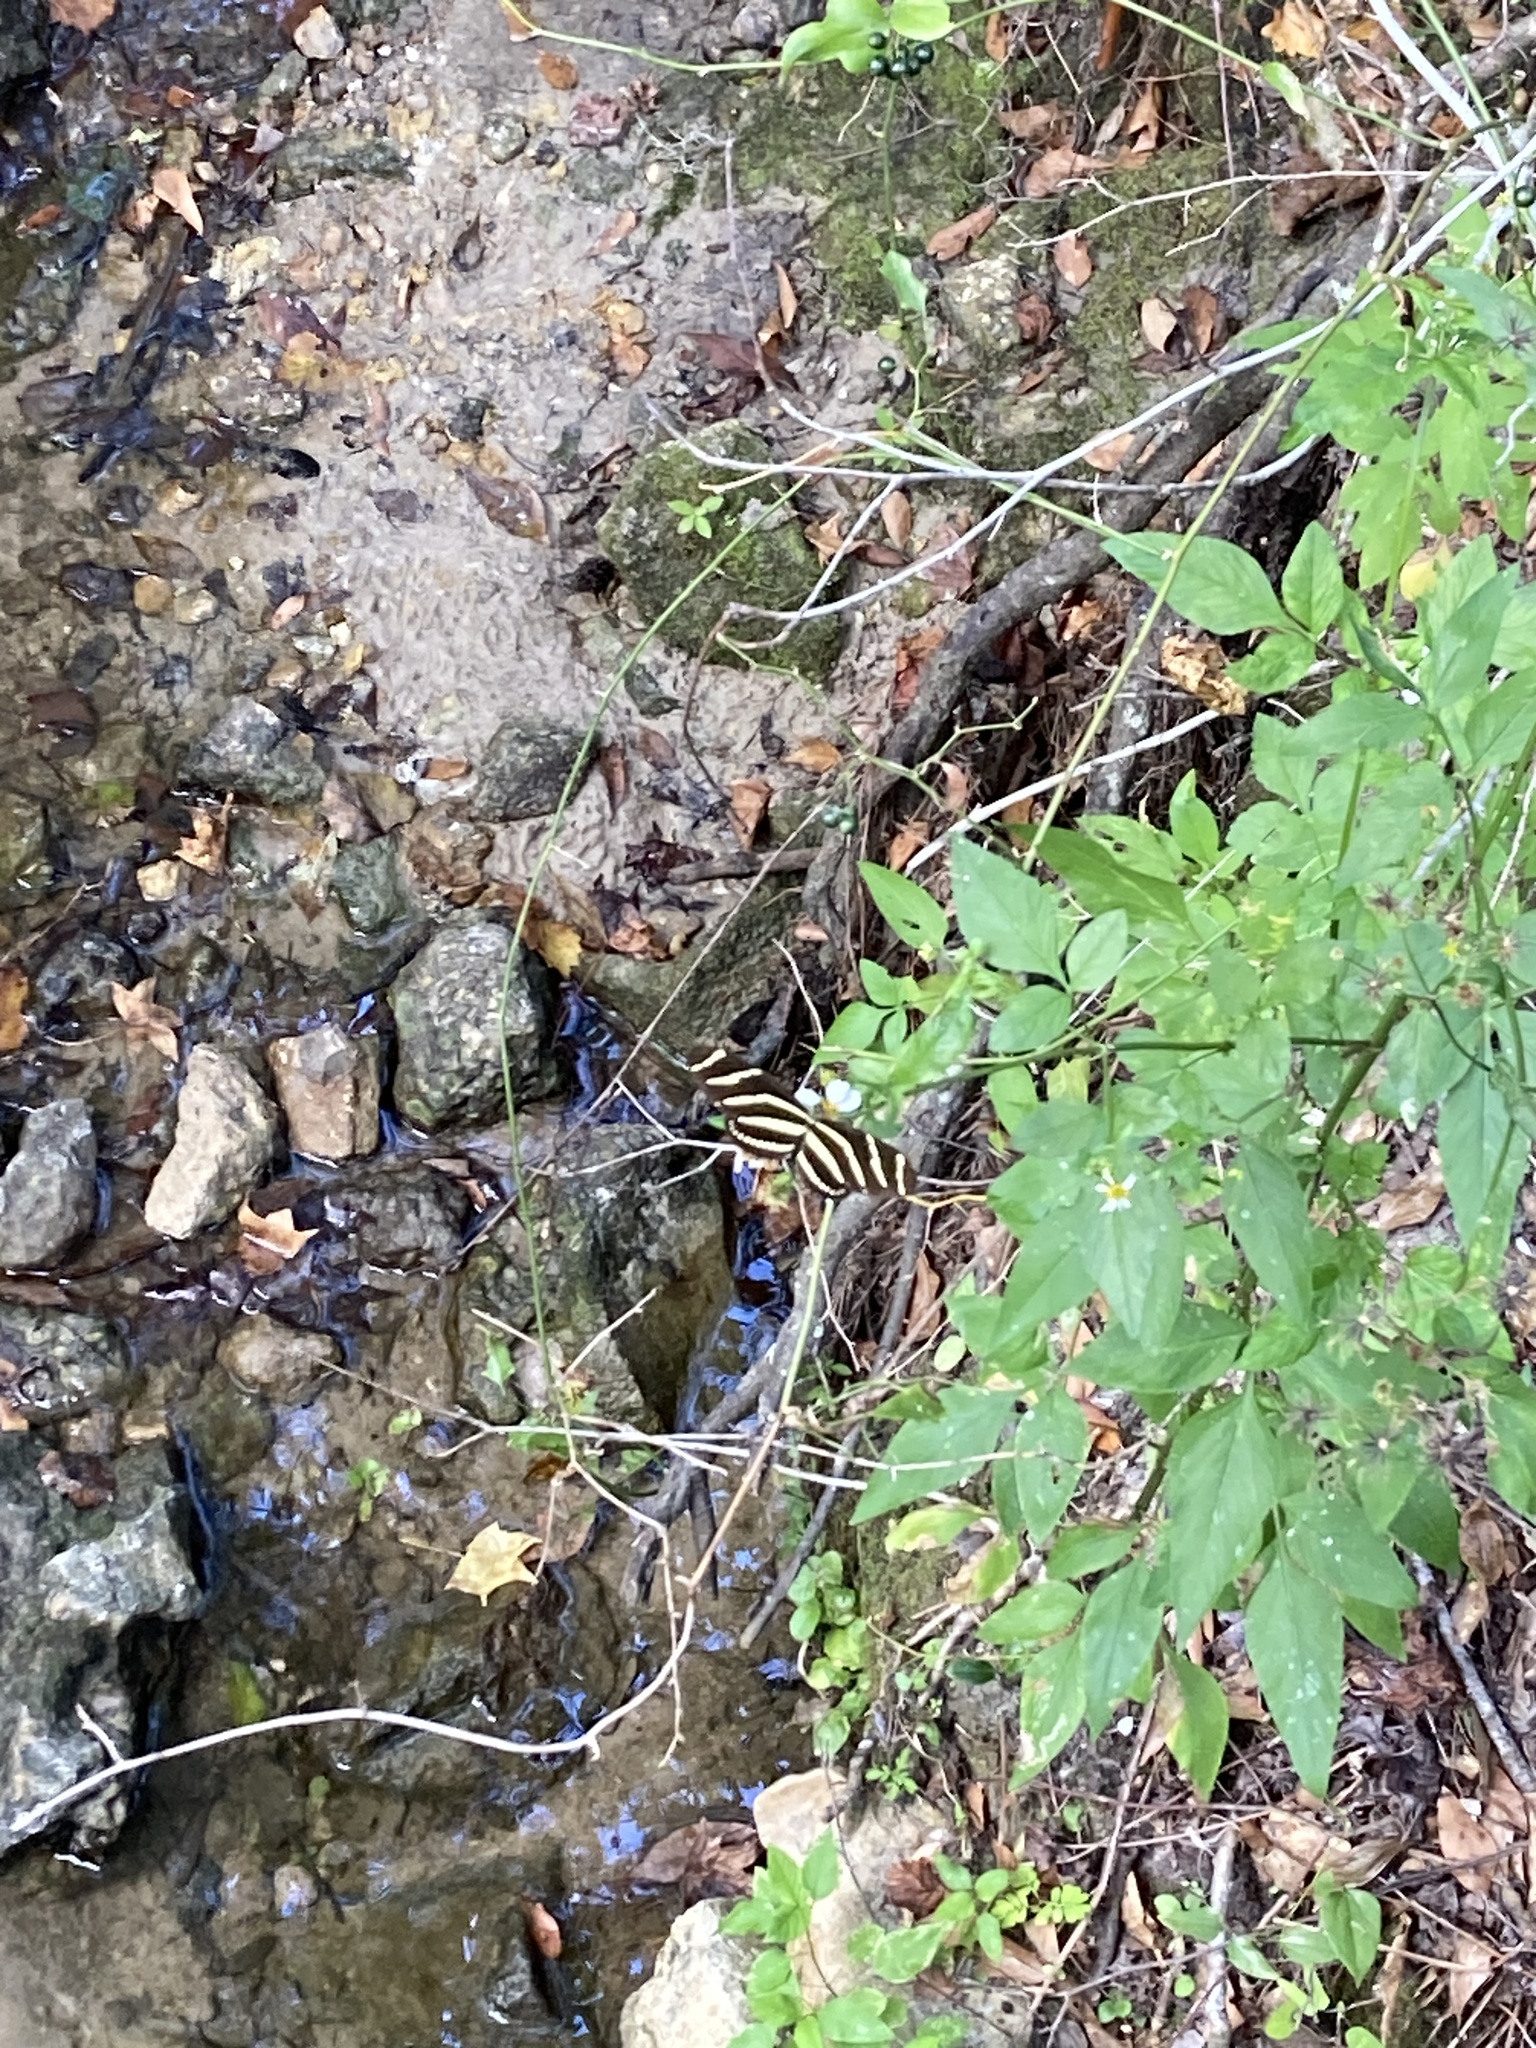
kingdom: Animalia
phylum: Arthropoda
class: Insecta
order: Lepidoptera
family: Nymphalidae
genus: Heliconius
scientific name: Heliconius charithonia
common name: Zebra long wing
